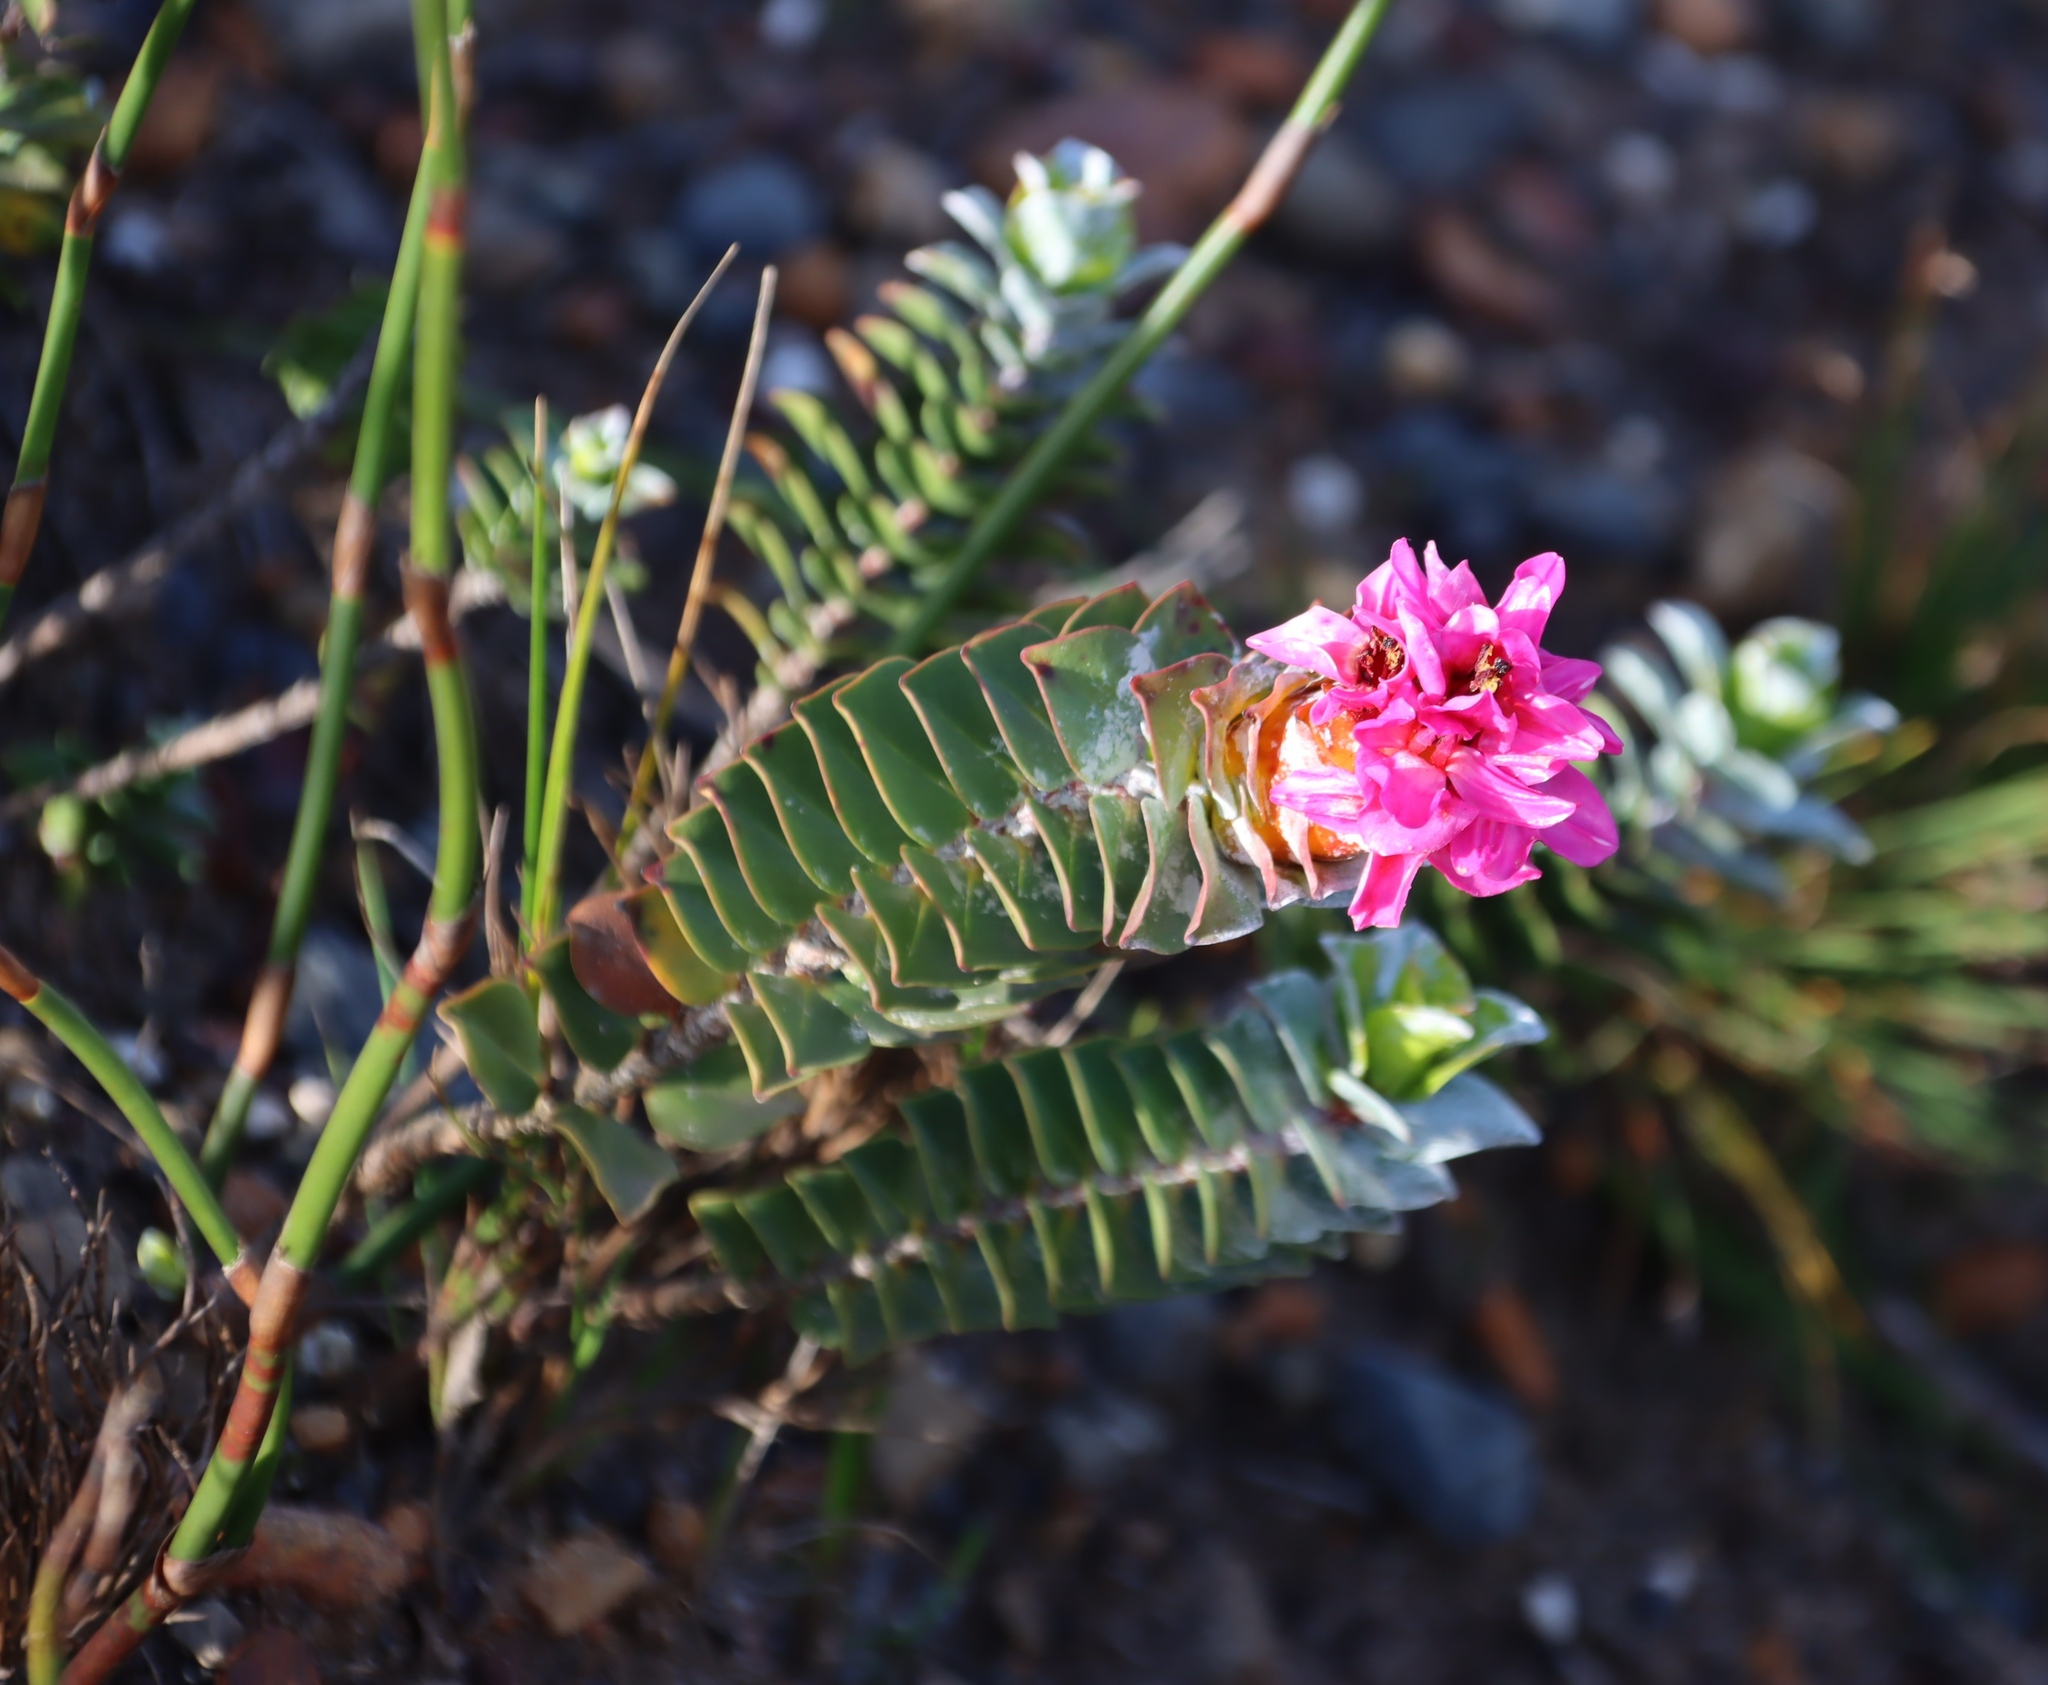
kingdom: Plantae
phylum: Tracheophyta
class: Magnoliopsida
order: Myrtales
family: Penaeaceae
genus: Saltera
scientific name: Saltera sarcocolla
